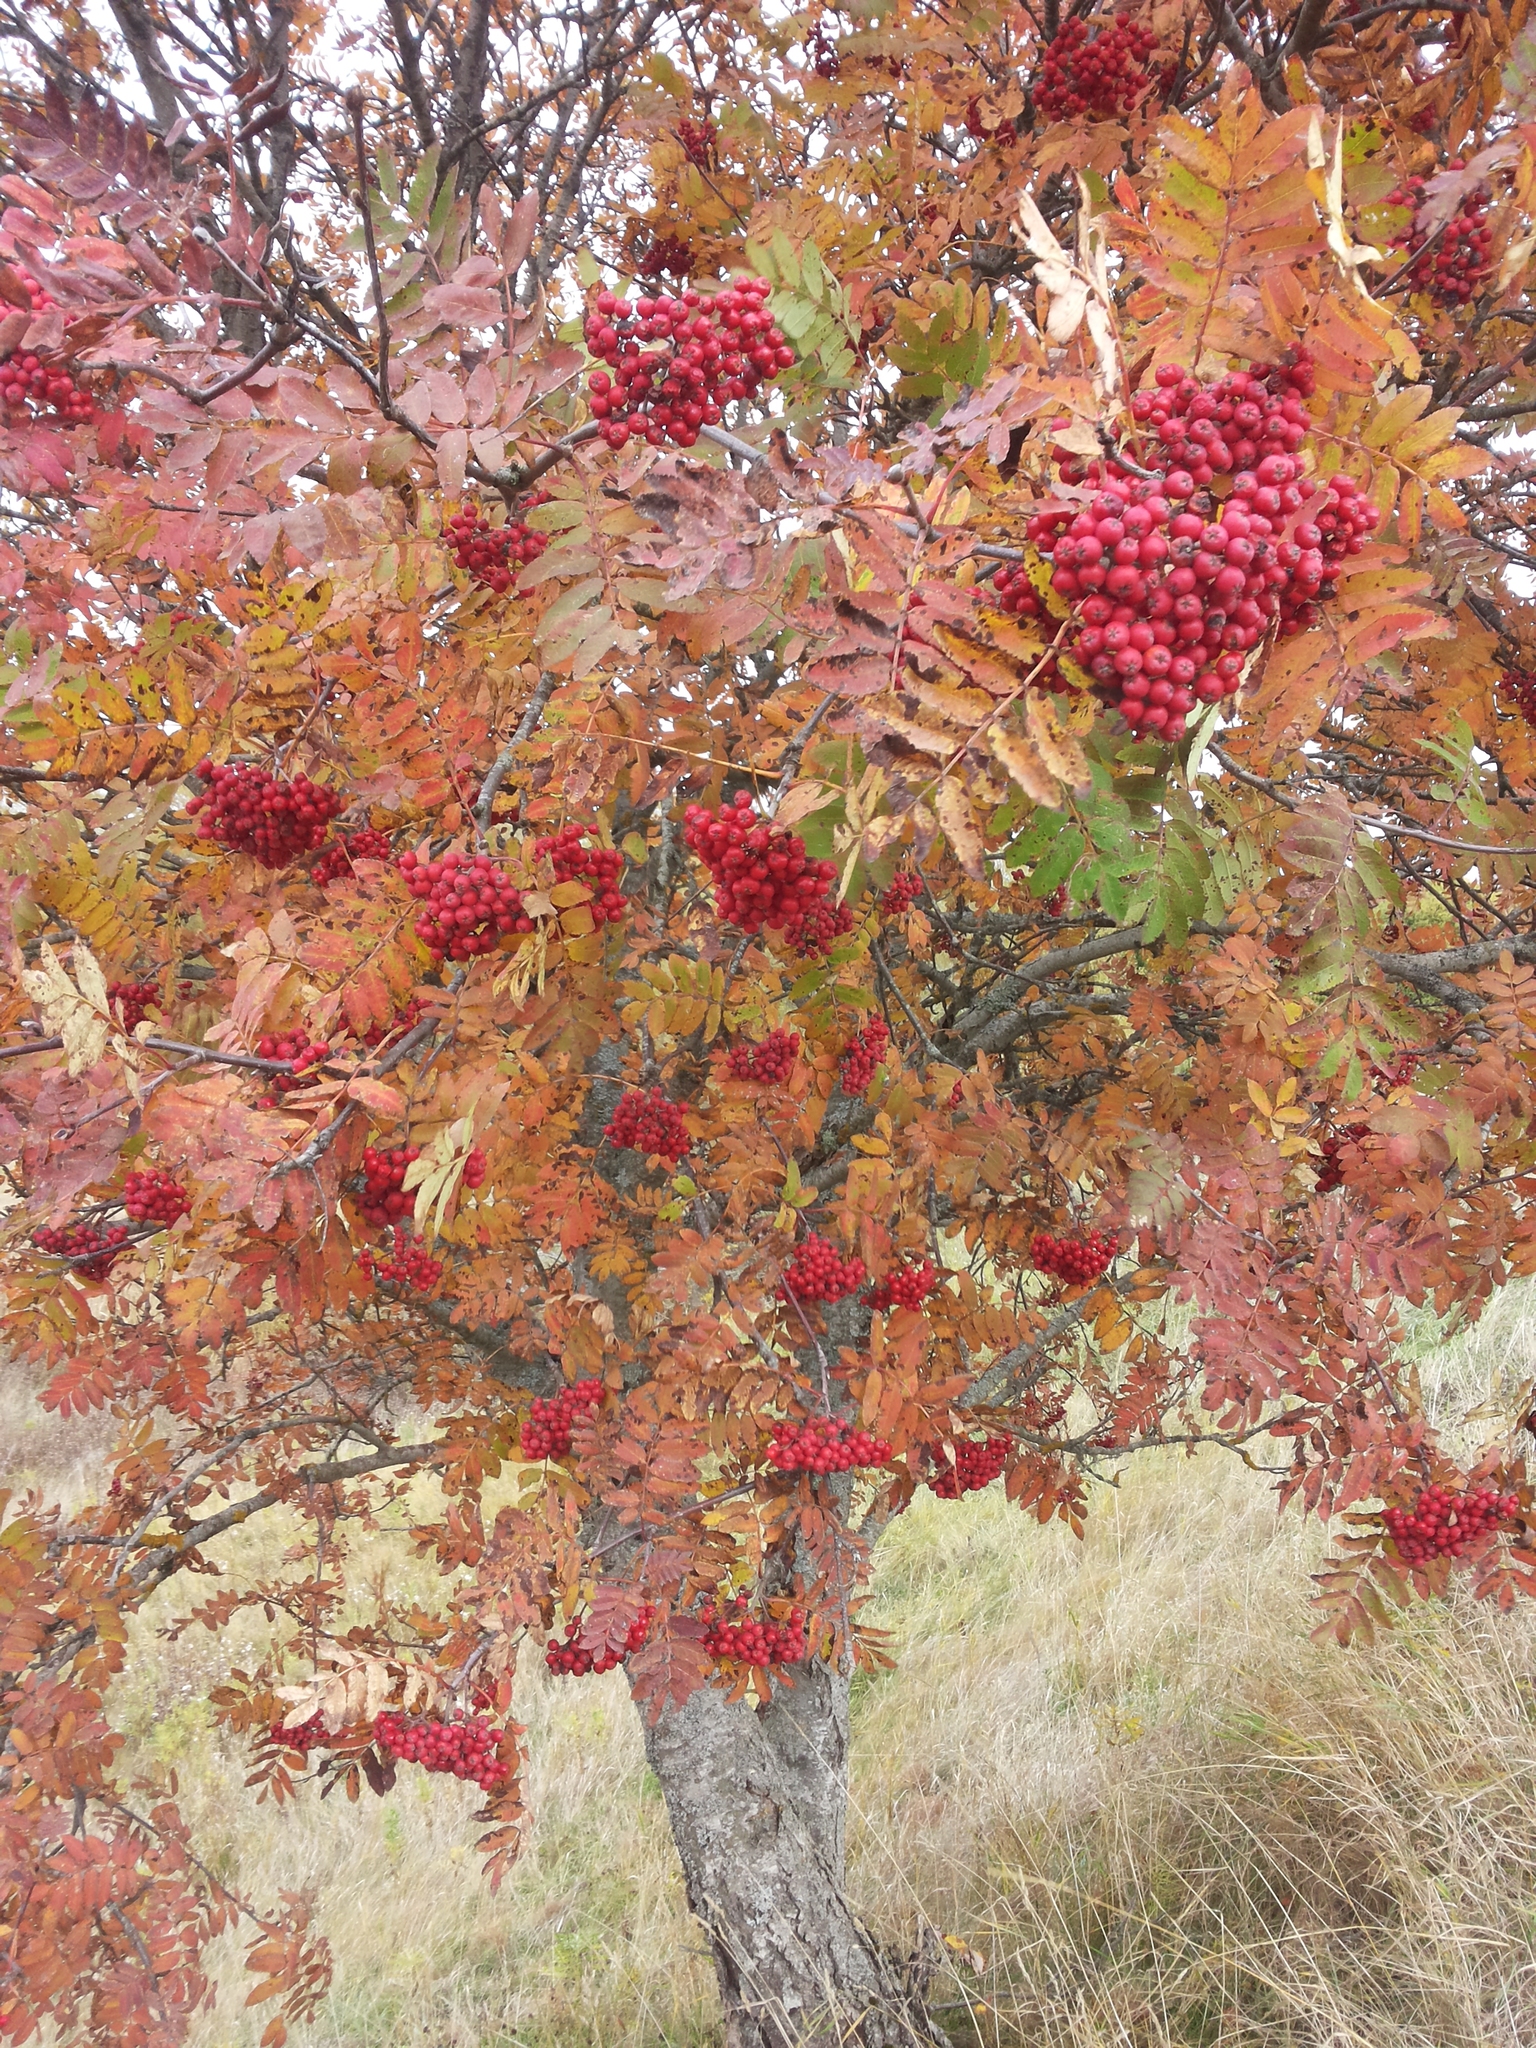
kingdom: Plantae
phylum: Tracheophyta
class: Magnoliopsida
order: Rosales
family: Rosaceae
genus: Sorbus
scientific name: Sorbus aucuparia
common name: Rowan
